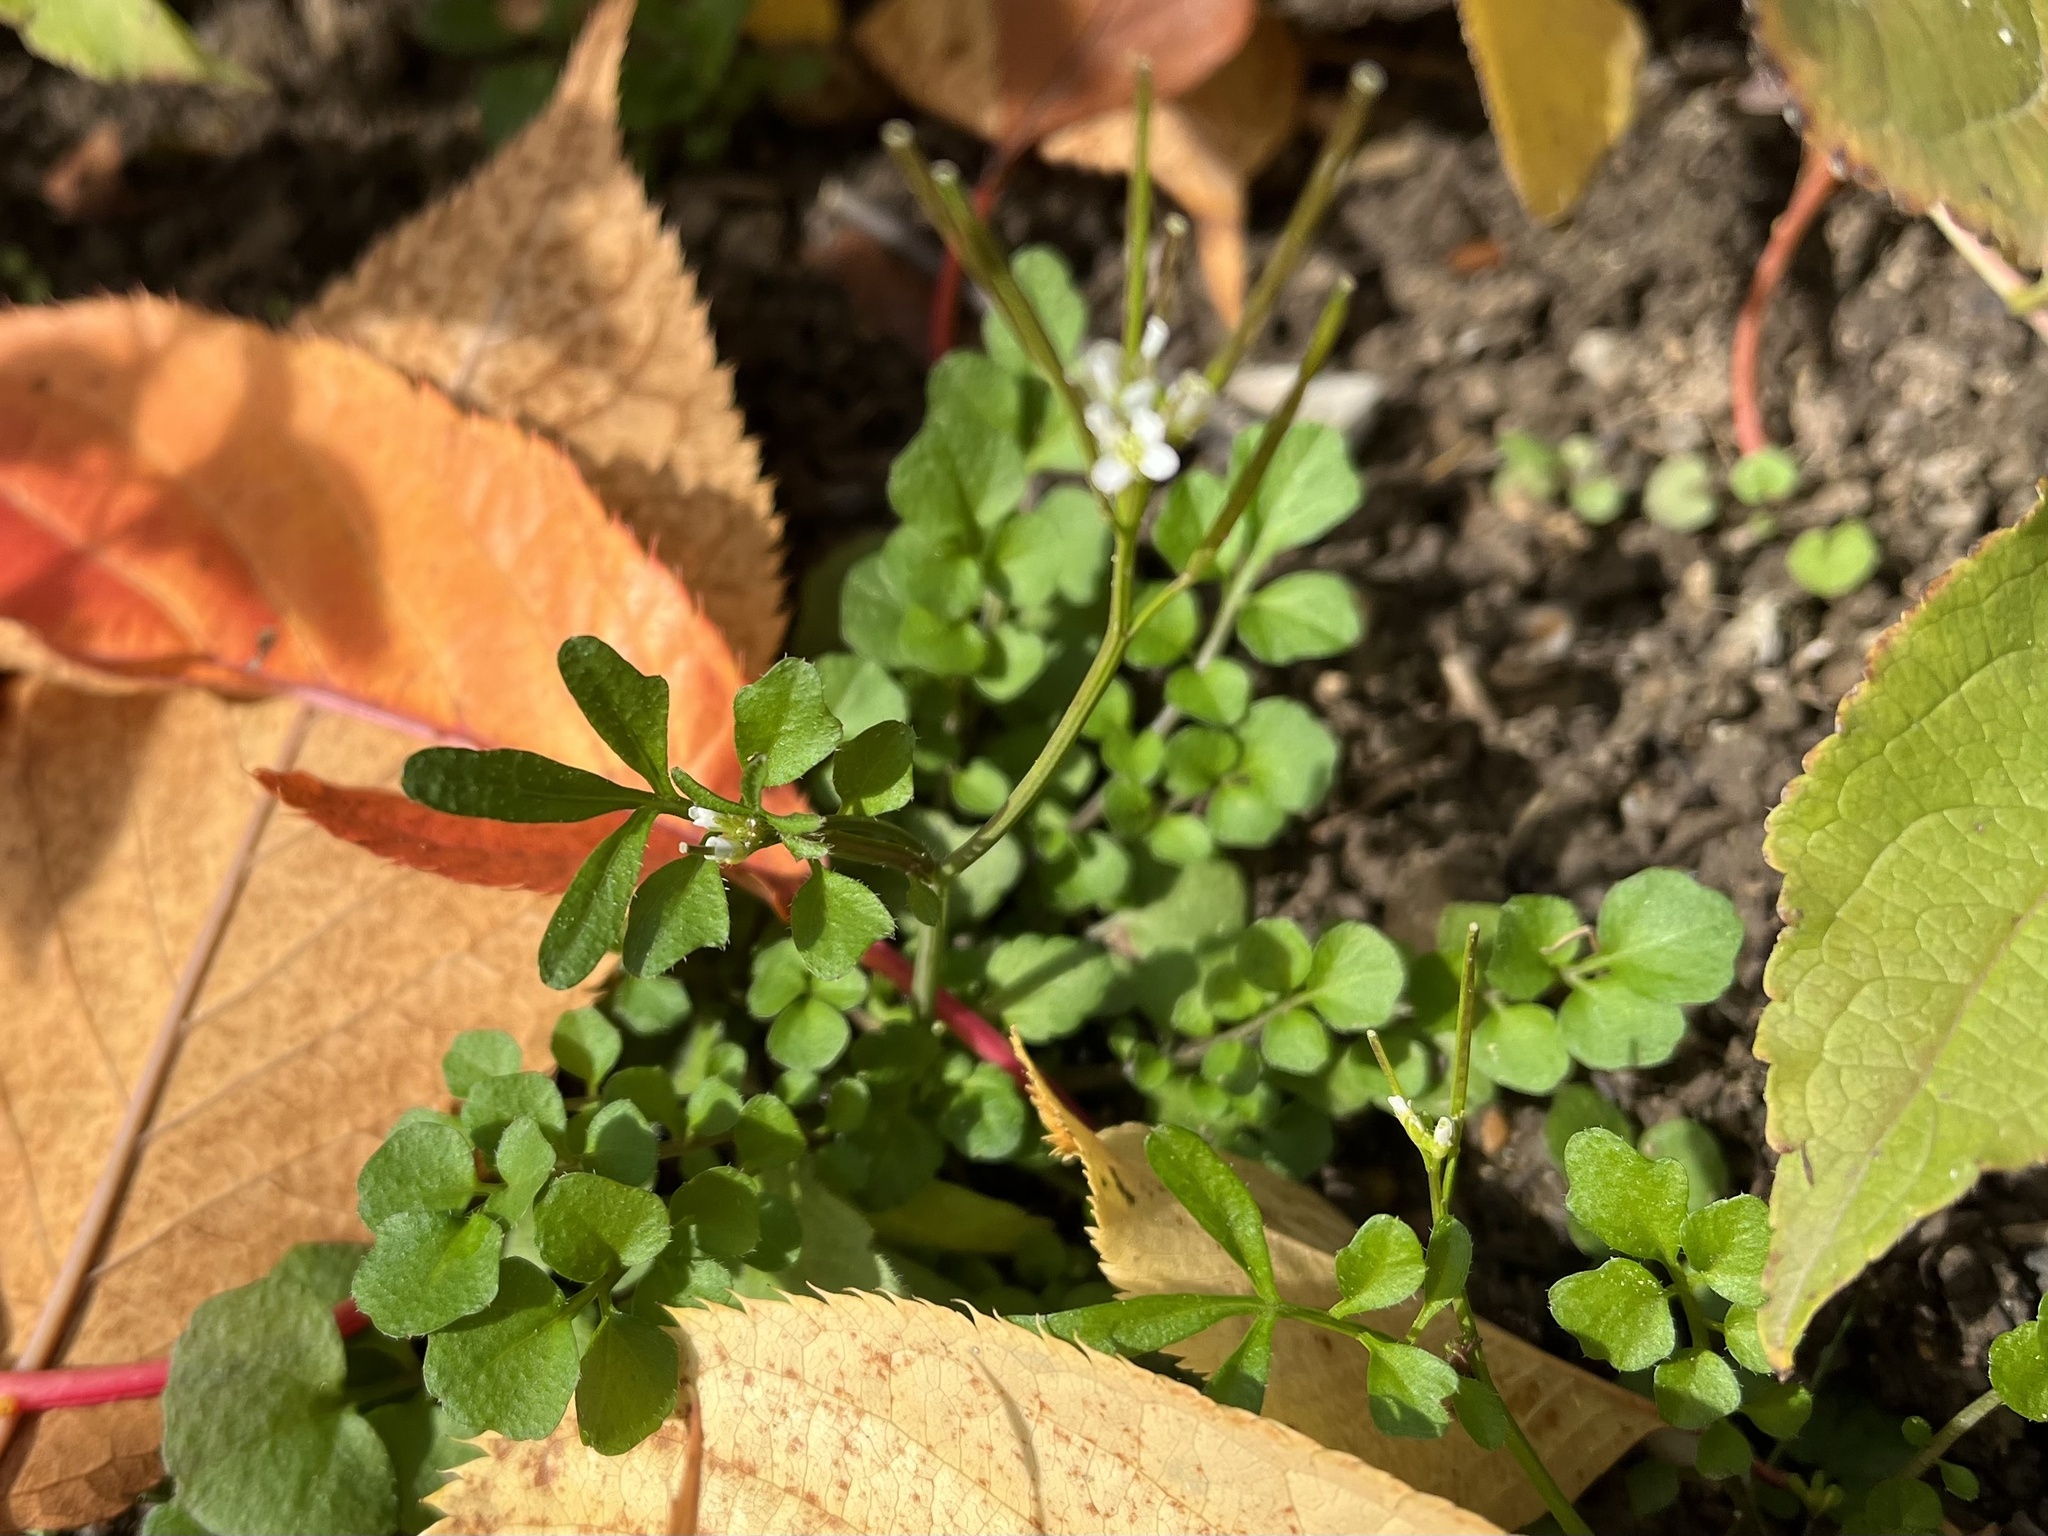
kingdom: Plantae
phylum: Tracheophyta
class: Magnoliopsida
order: Brassicales
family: Brassicaceae
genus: Cardamine
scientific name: Cardamine hirsuta
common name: Hairy bittercress
